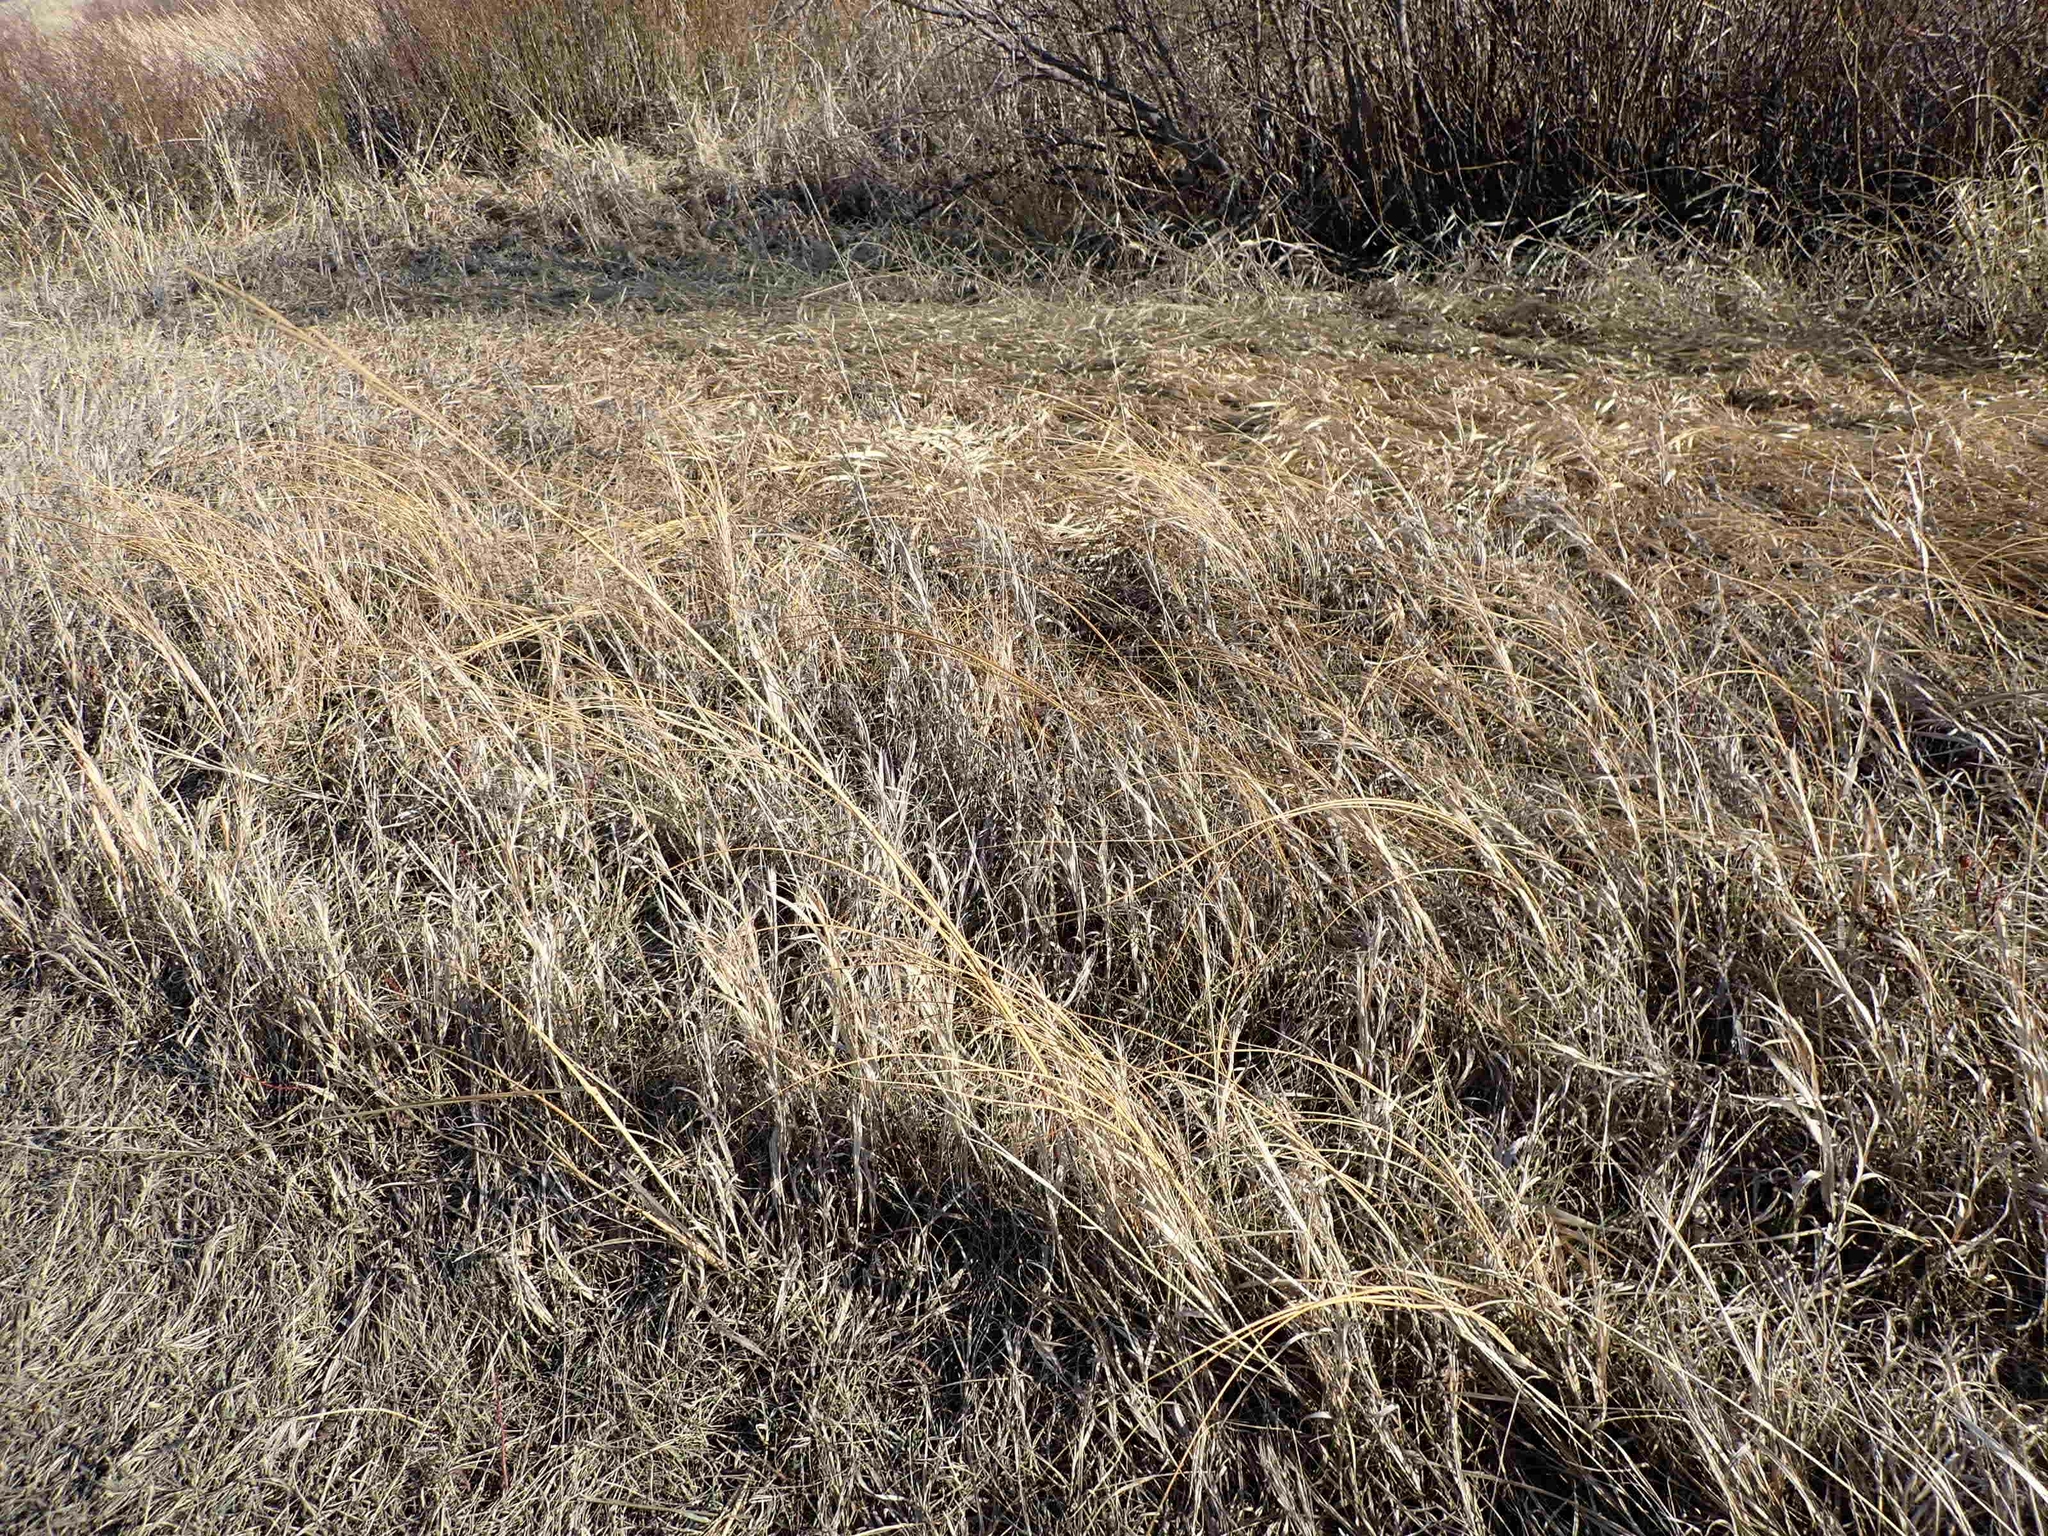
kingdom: Plantae
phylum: Tracheophyta
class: Liliopsida
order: Poales
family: Poaceae
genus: Sporobolus
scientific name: Sporobolus michauxianus
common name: Freshwater cordgrass
